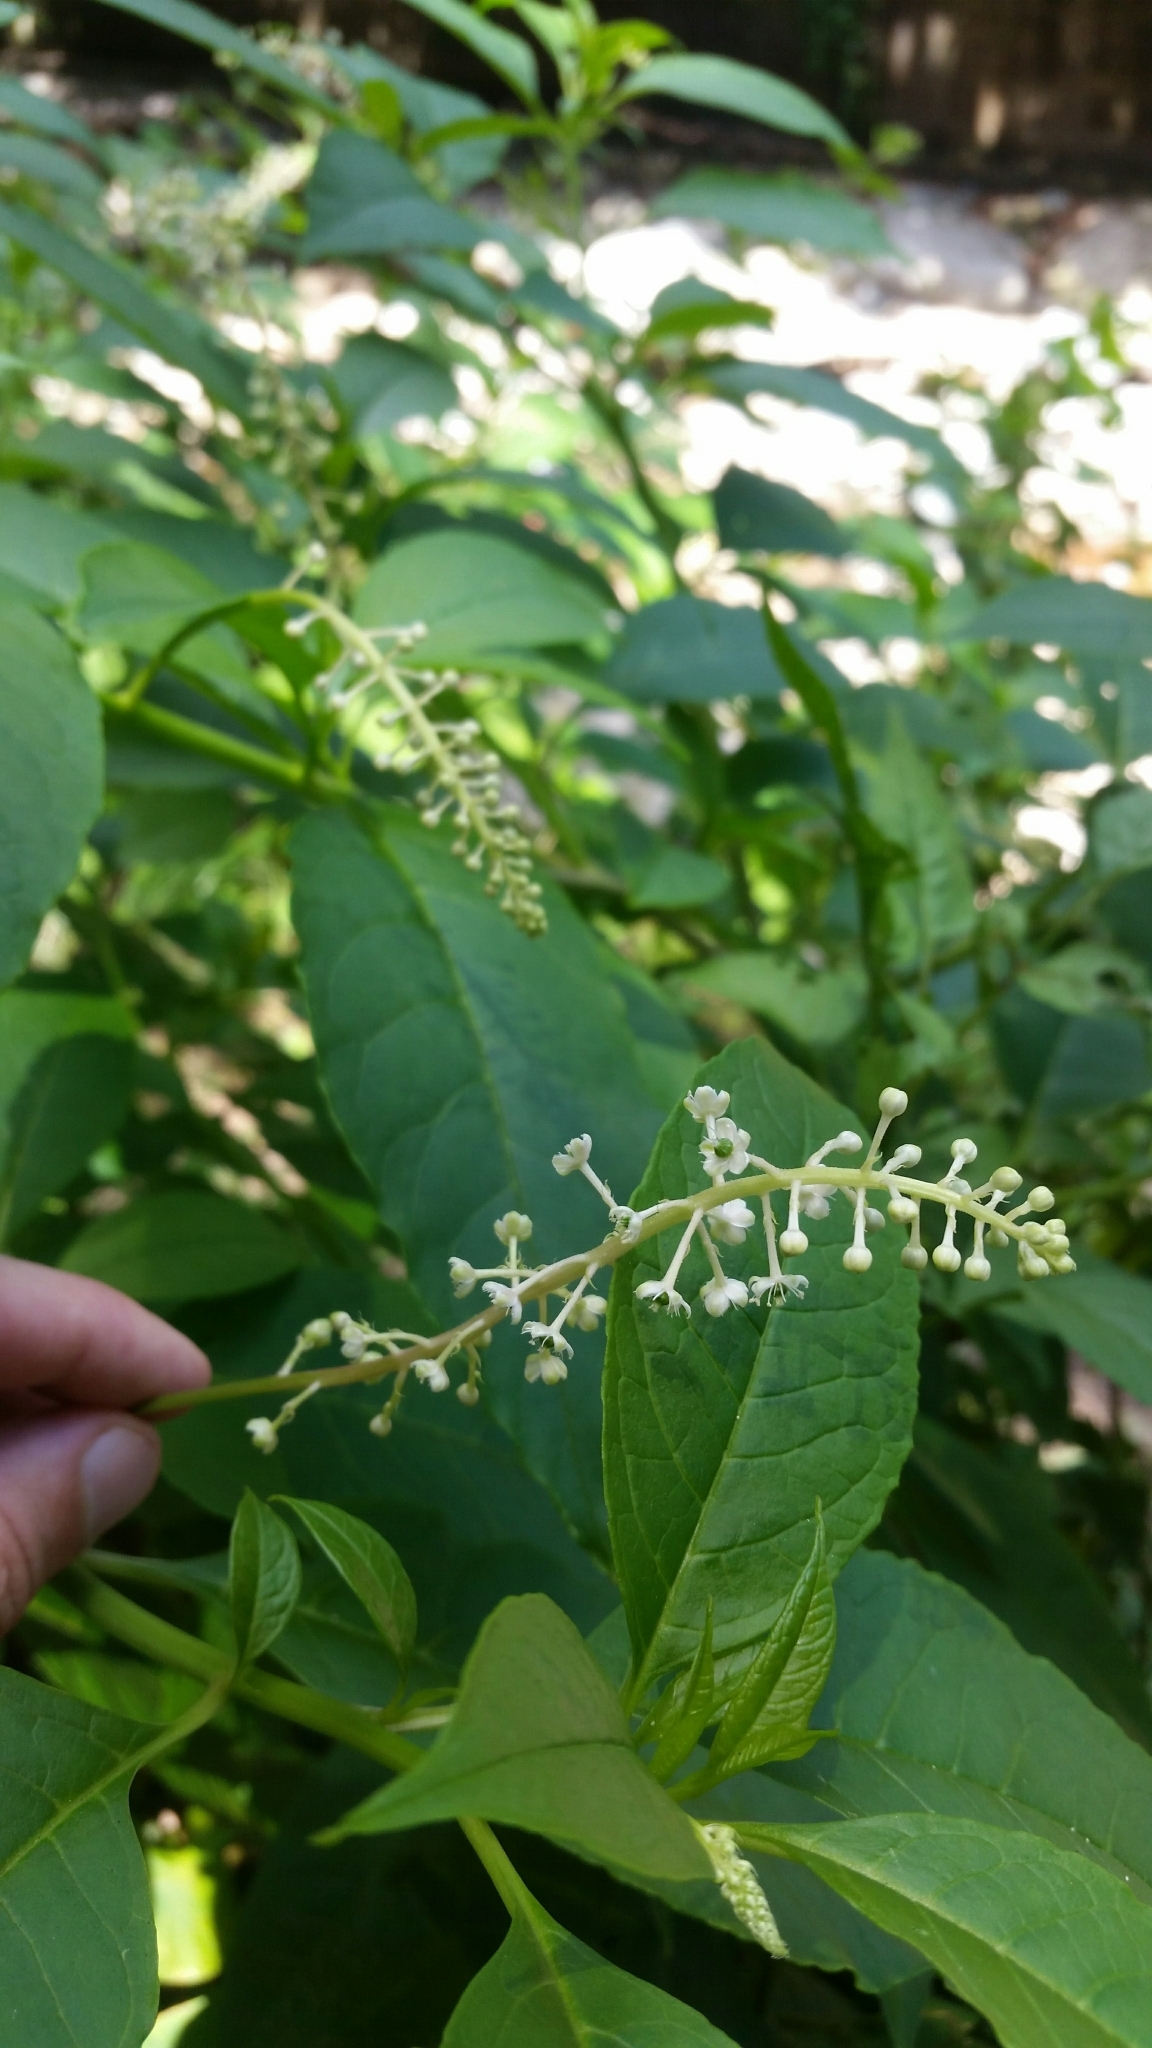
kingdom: Plantae
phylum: Tracheophyta
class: Magnoliopsida
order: Caryophyllales
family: Phytolaccaceae
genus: Phytolacca
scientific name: Phytolacca americana
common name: American pokeweed
